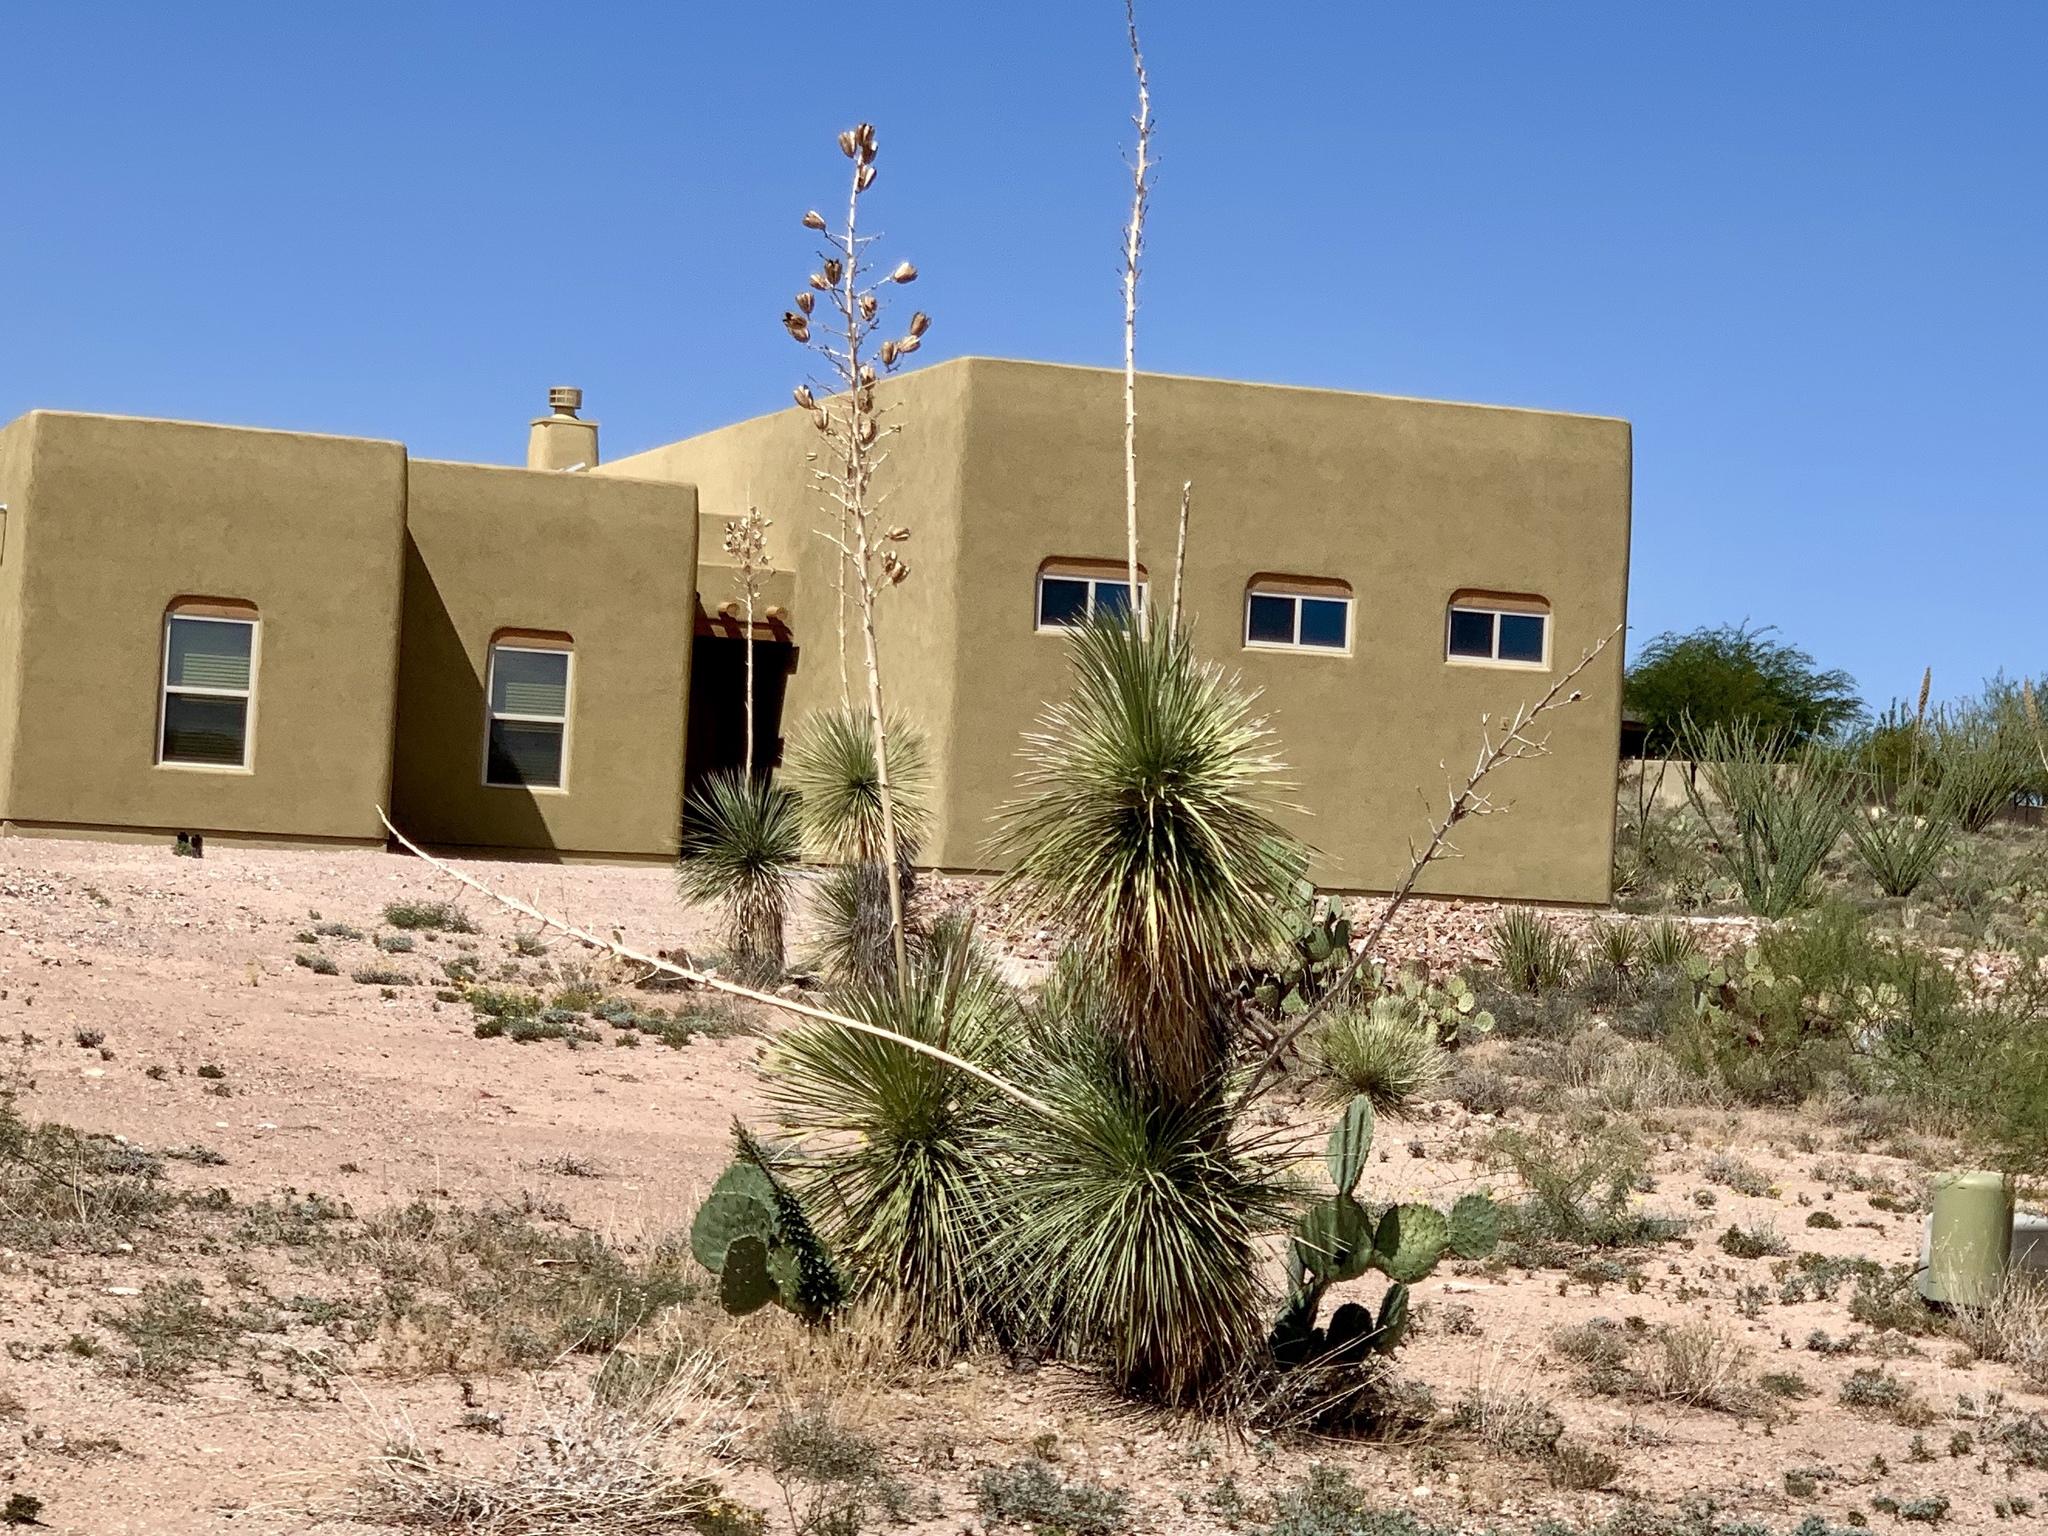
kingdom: Plantae
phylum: Tracheophyta
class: Liliopsida
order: Asparagales
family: Asparagaceae
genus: Yucca
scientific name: Yucca elata
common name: Palmella
